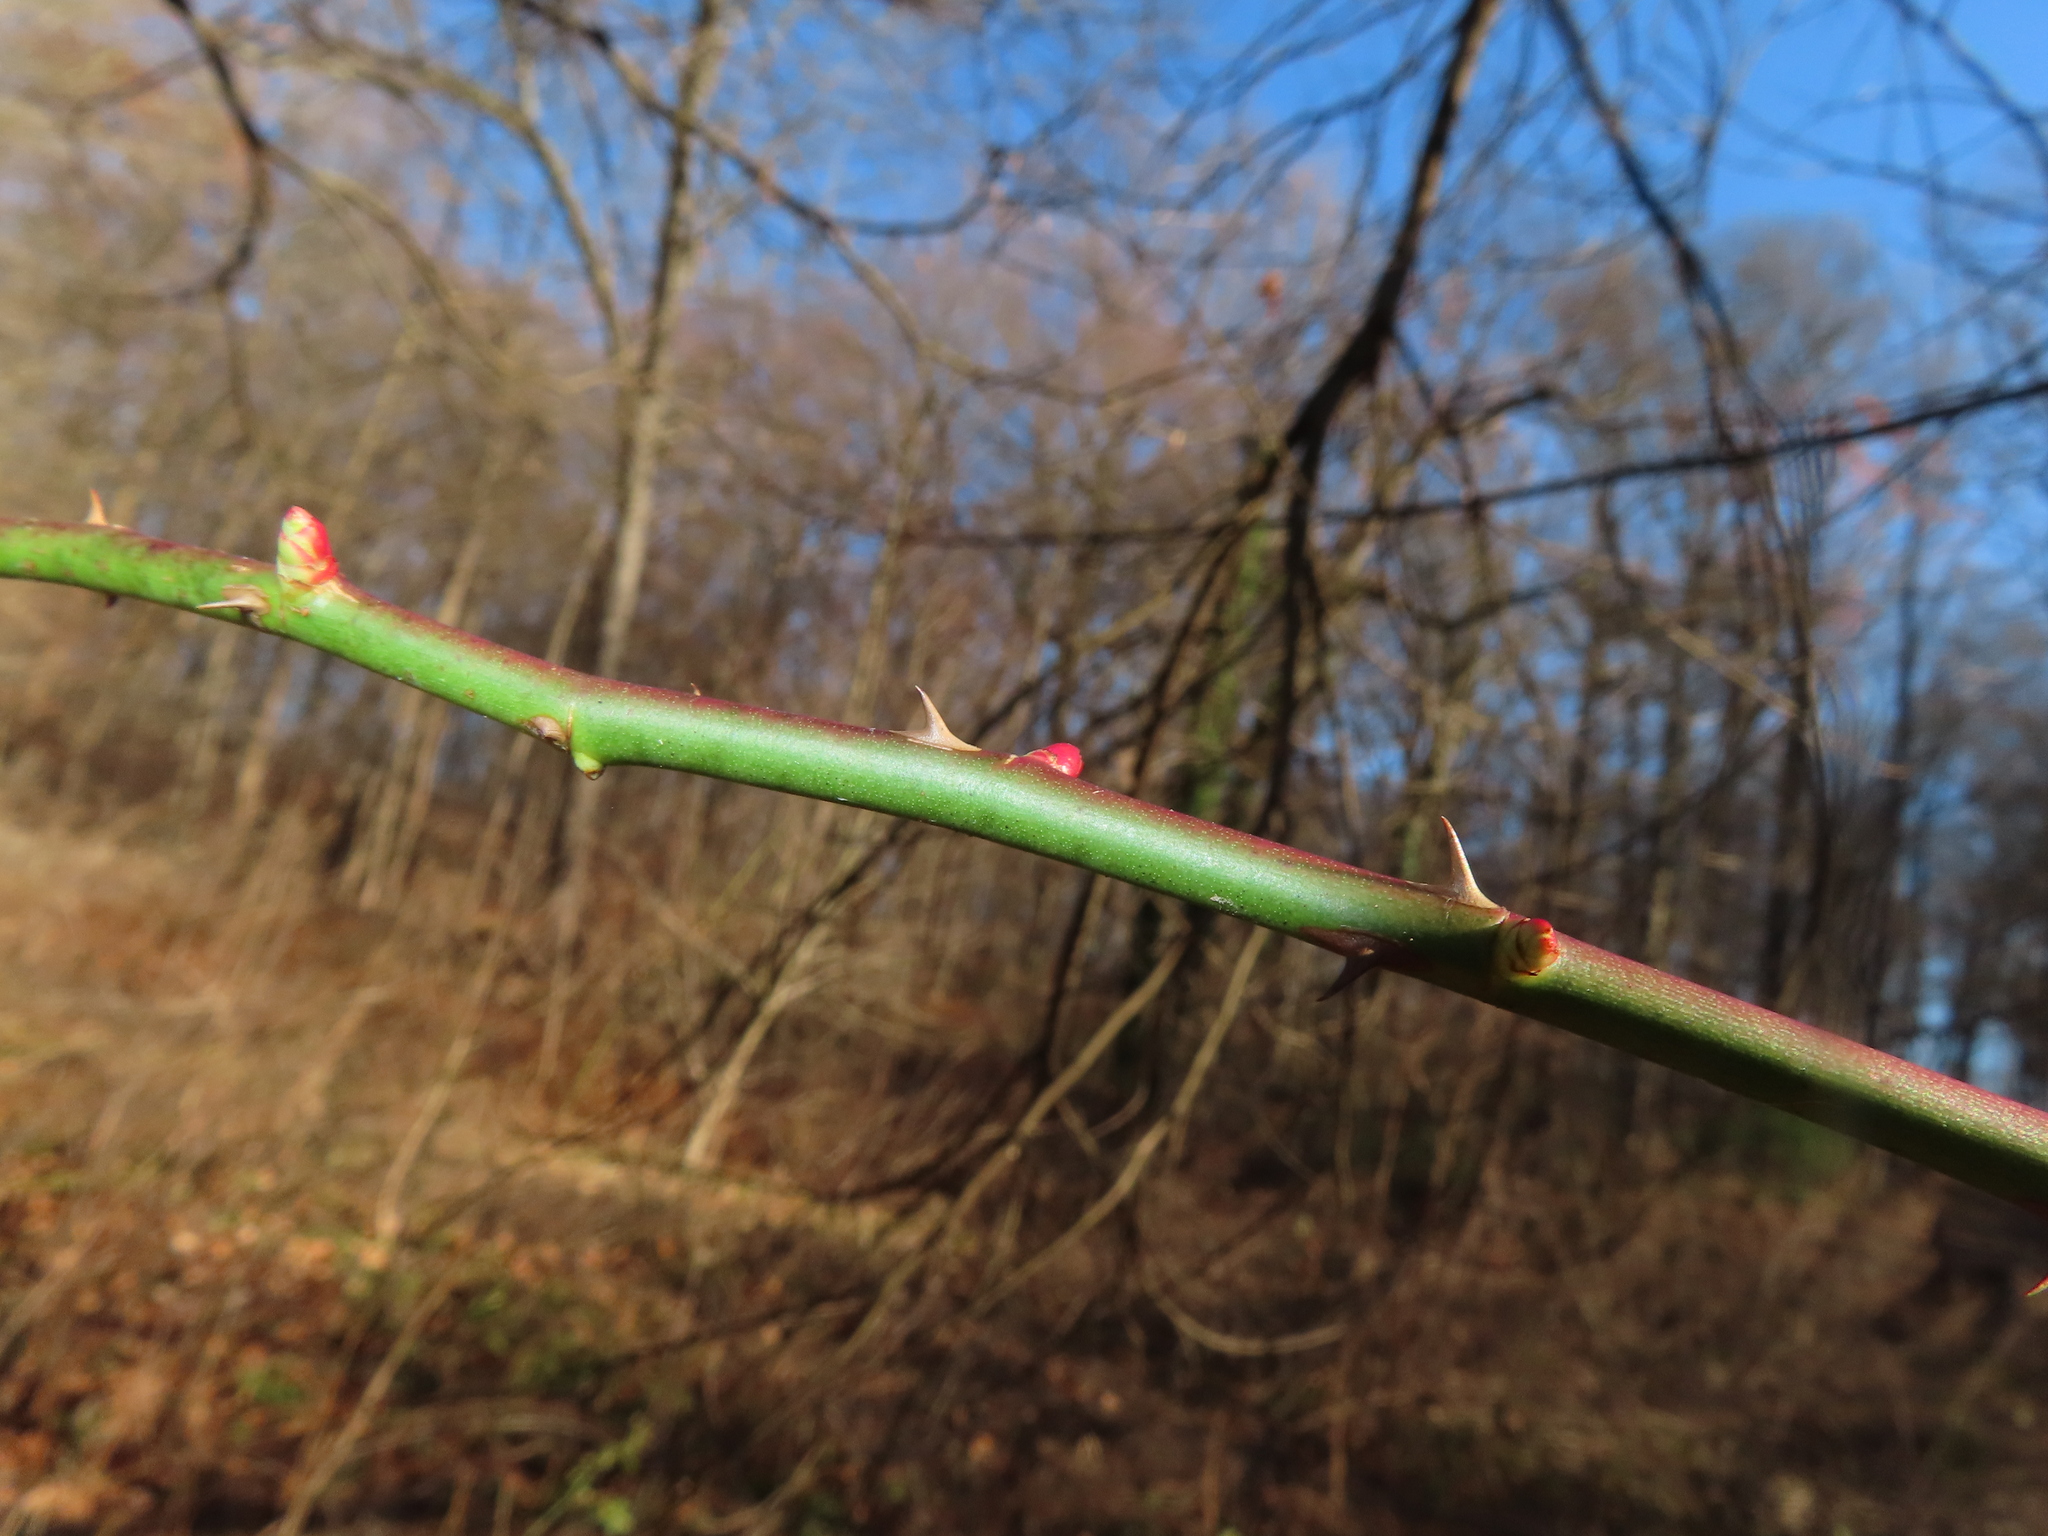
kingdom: Plantae
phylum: Tracheophyta
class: Magnoliopsida
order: Rosales
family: Rosaceae
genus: Rosa
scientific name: Rosa multiflora
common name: Multiflora rose
